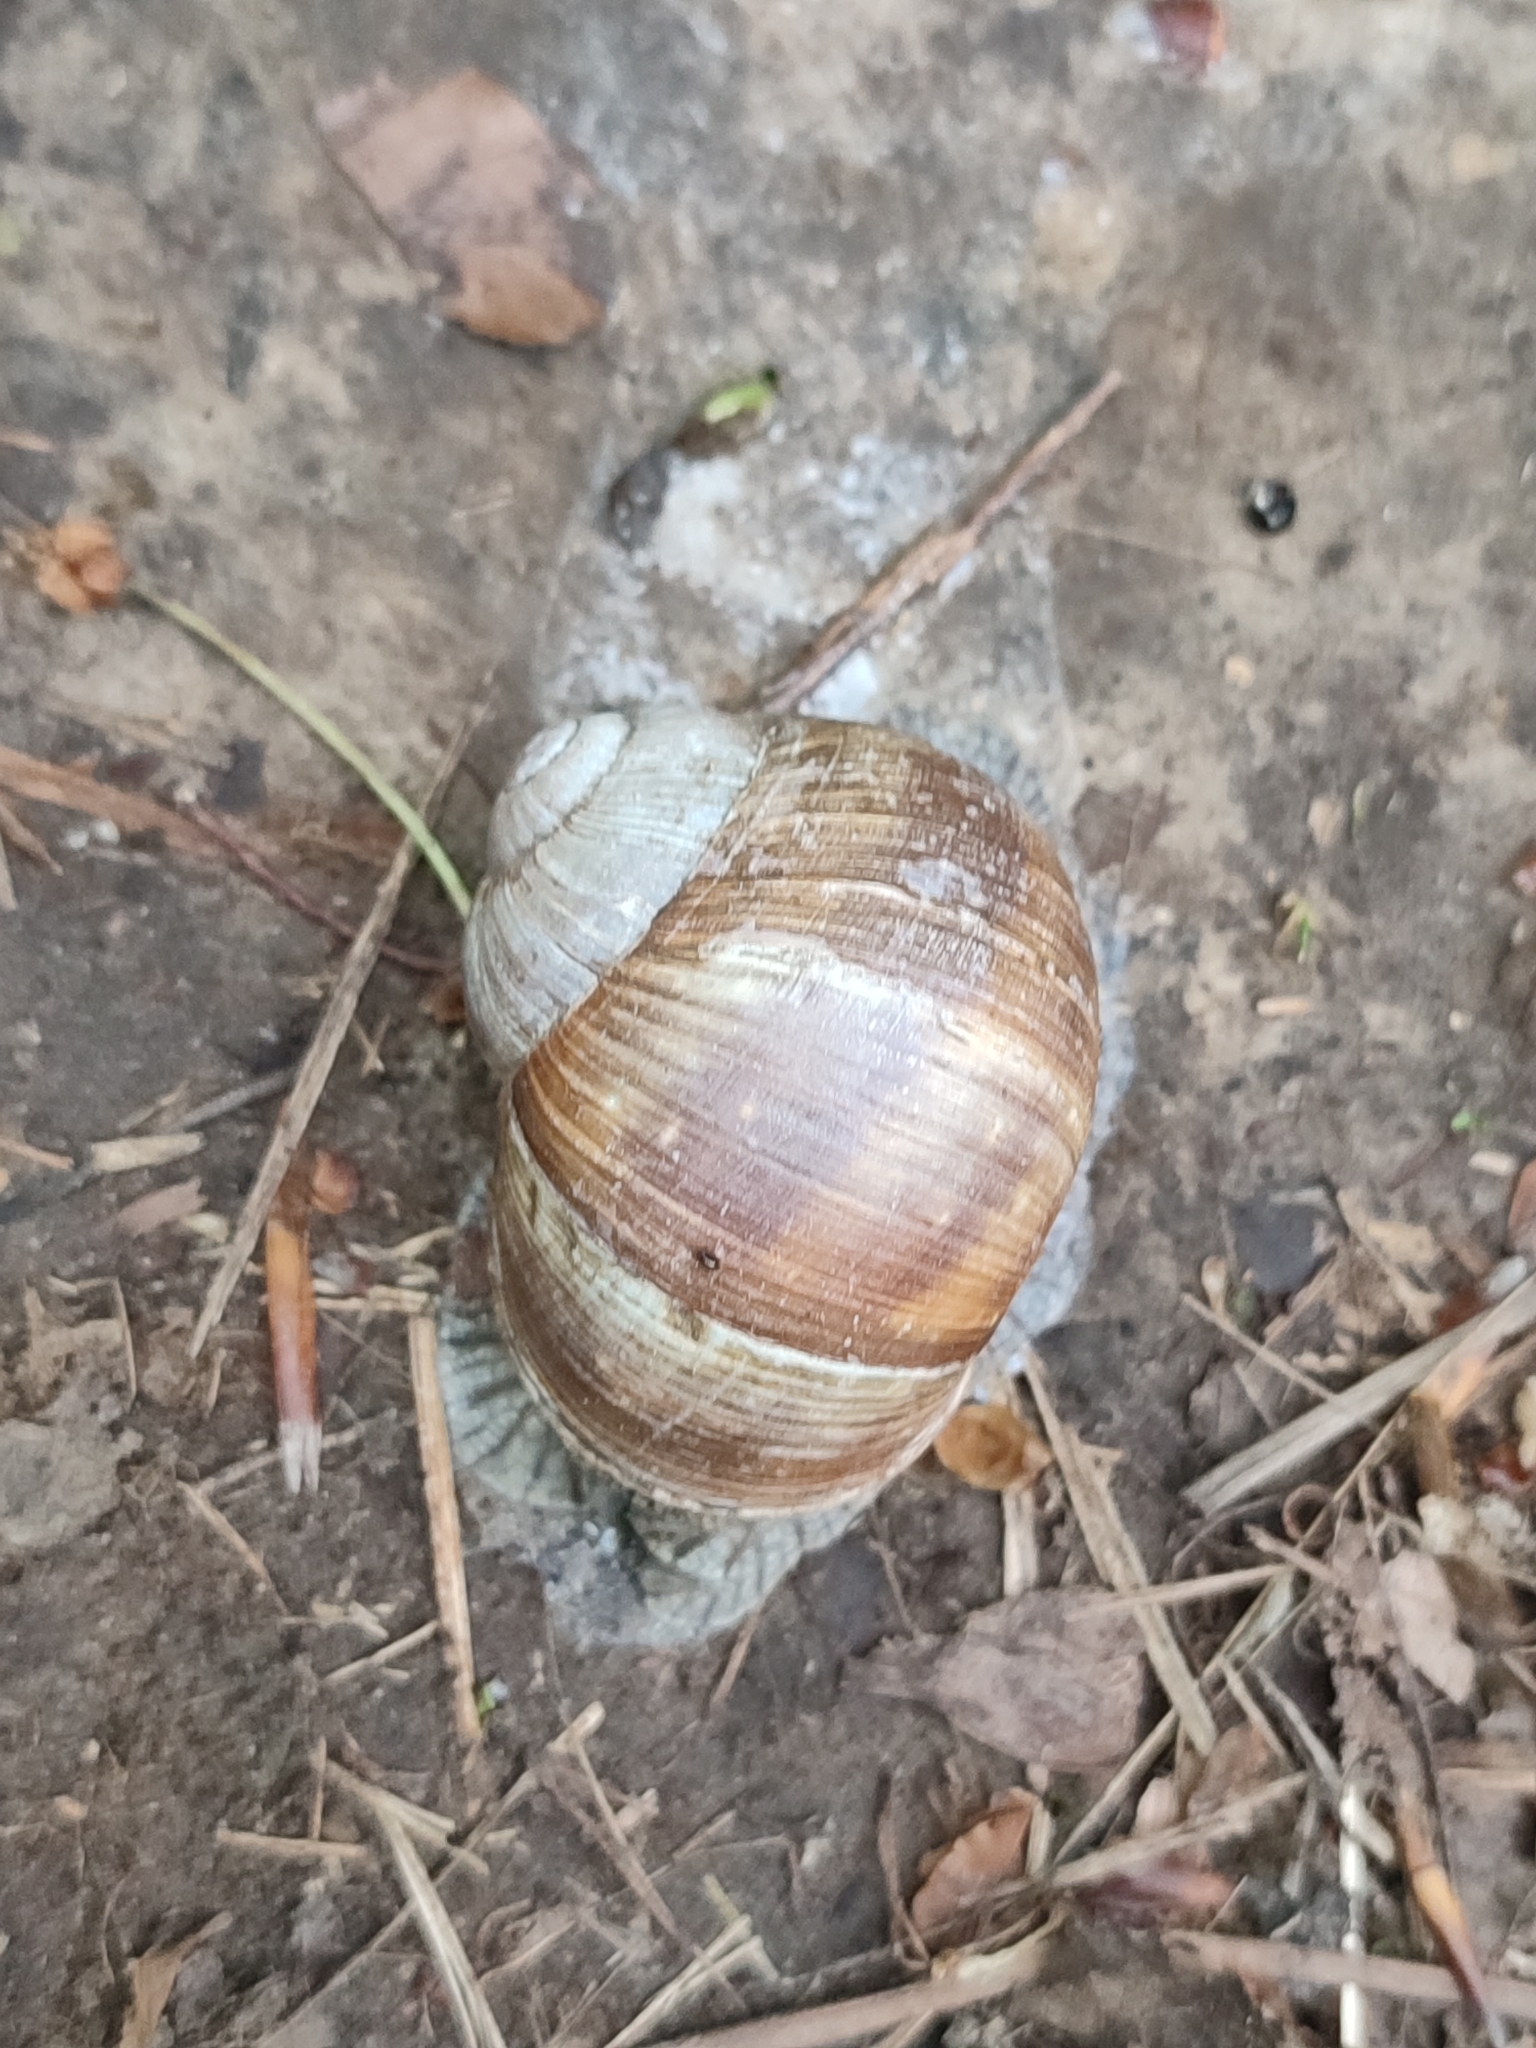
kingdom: Animalia
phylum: Mollusca
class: Gastropoda
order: Stylommatophora
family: Helicidae
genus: Helix
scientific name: Helix pomatia
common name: Roman snail
